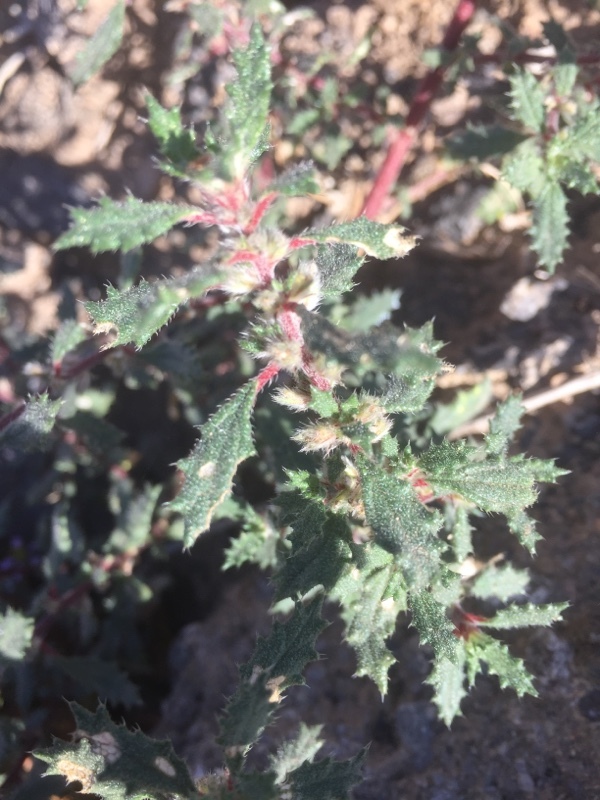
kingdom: Plantae
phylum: Tracheophyta
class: Magnoliopsida
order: Rosales
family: Urticaceae
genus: Forsskaolea
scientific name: Forsskaolea angustifolia
